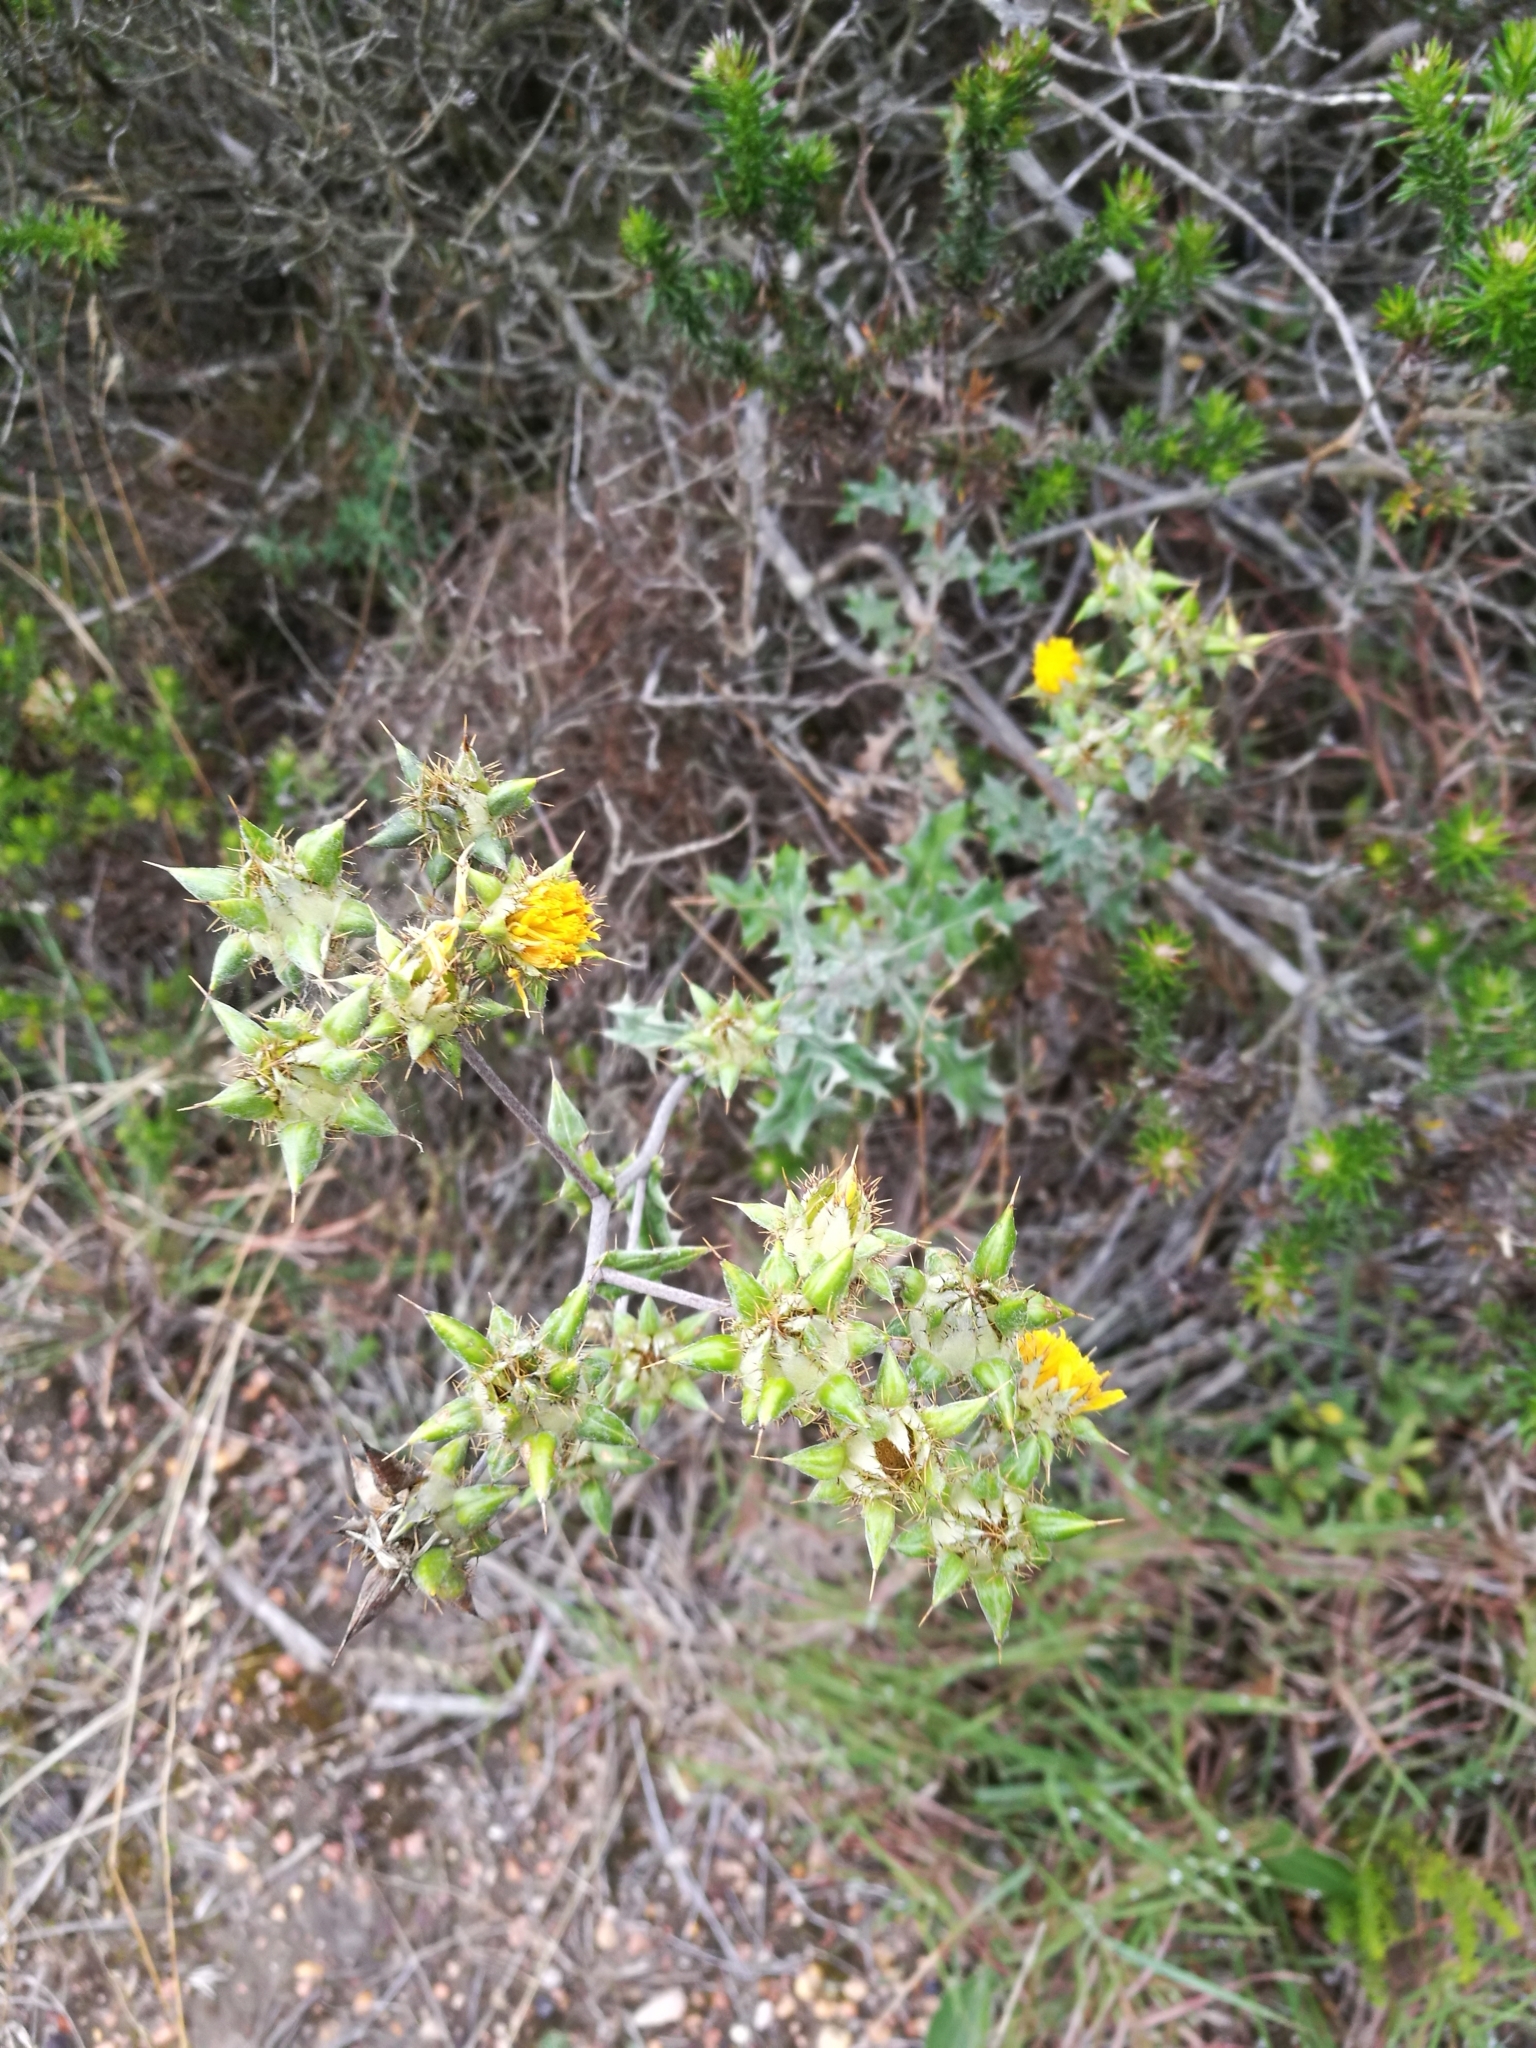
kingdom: Plantae
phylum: Tracheophyta
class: Magnoliopsida
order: Asterales
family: Asteraceae
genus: Berkheya
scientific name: Berkheya heterophylla
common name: Prickly gousblom
